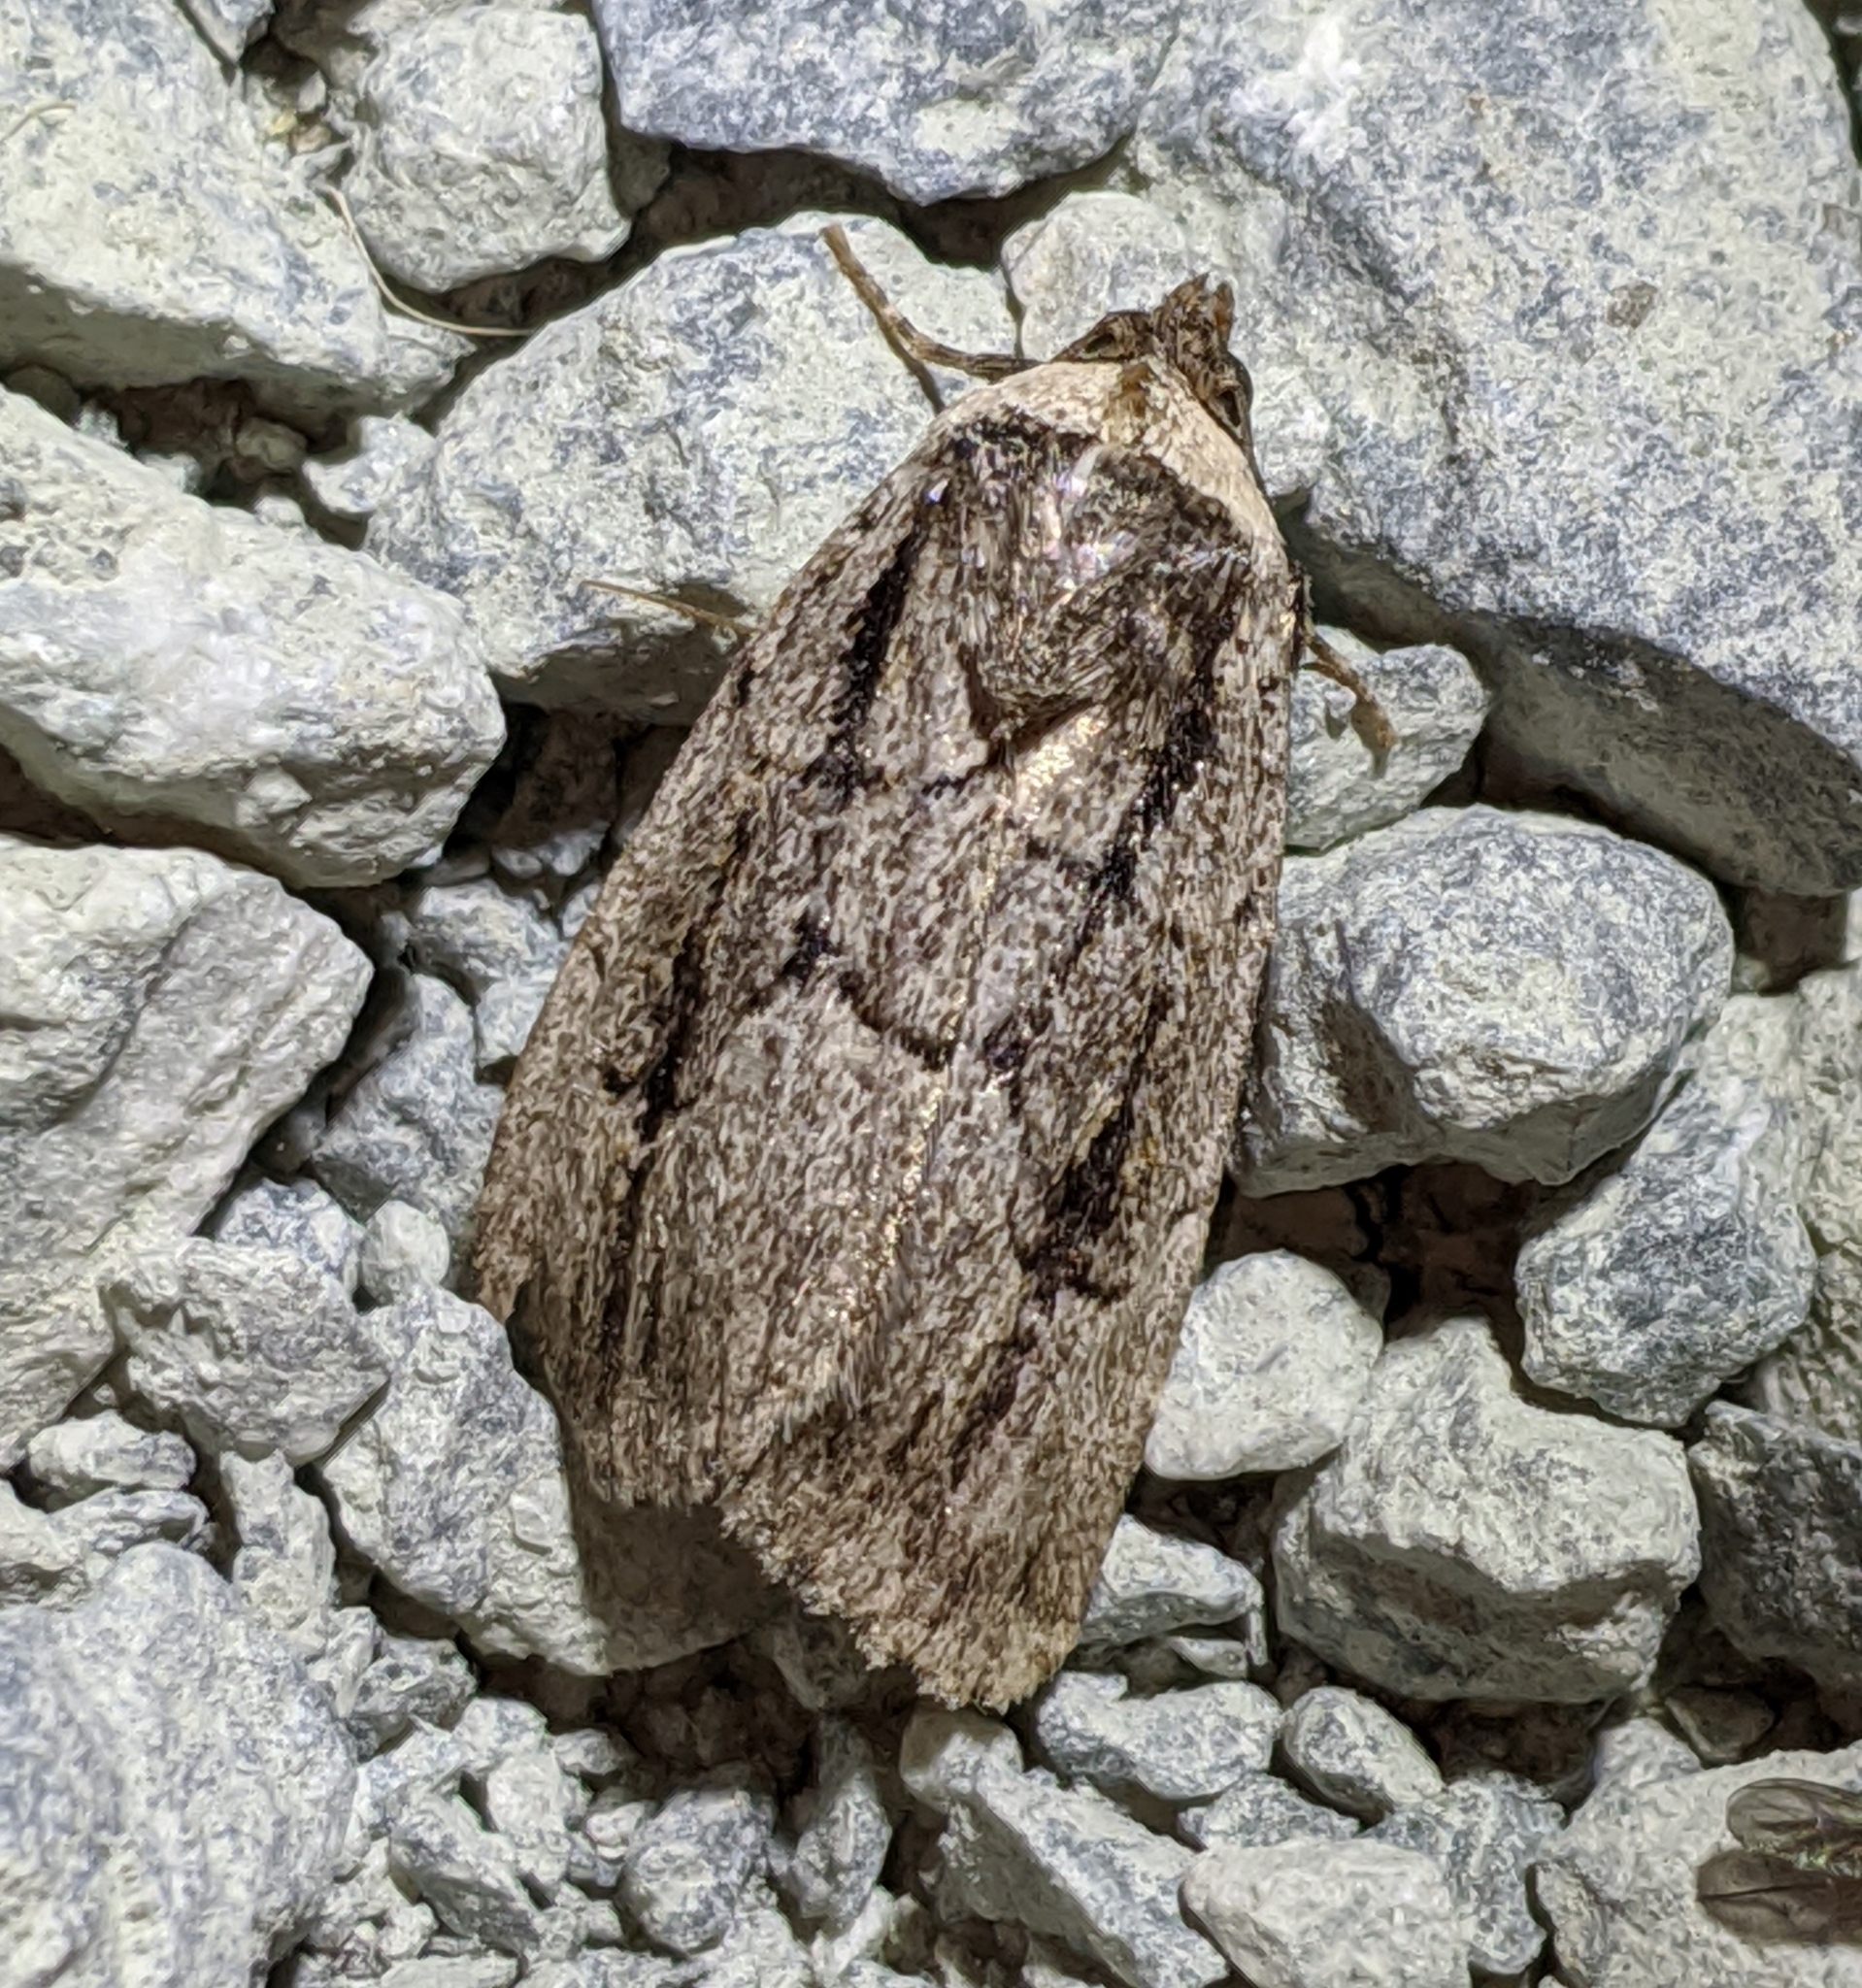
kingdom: Animalia
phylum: Arthropoda
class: Insecta
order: Lepidoptera
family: Noctuidae
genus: Sympistis
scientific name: Sympistis fifia
